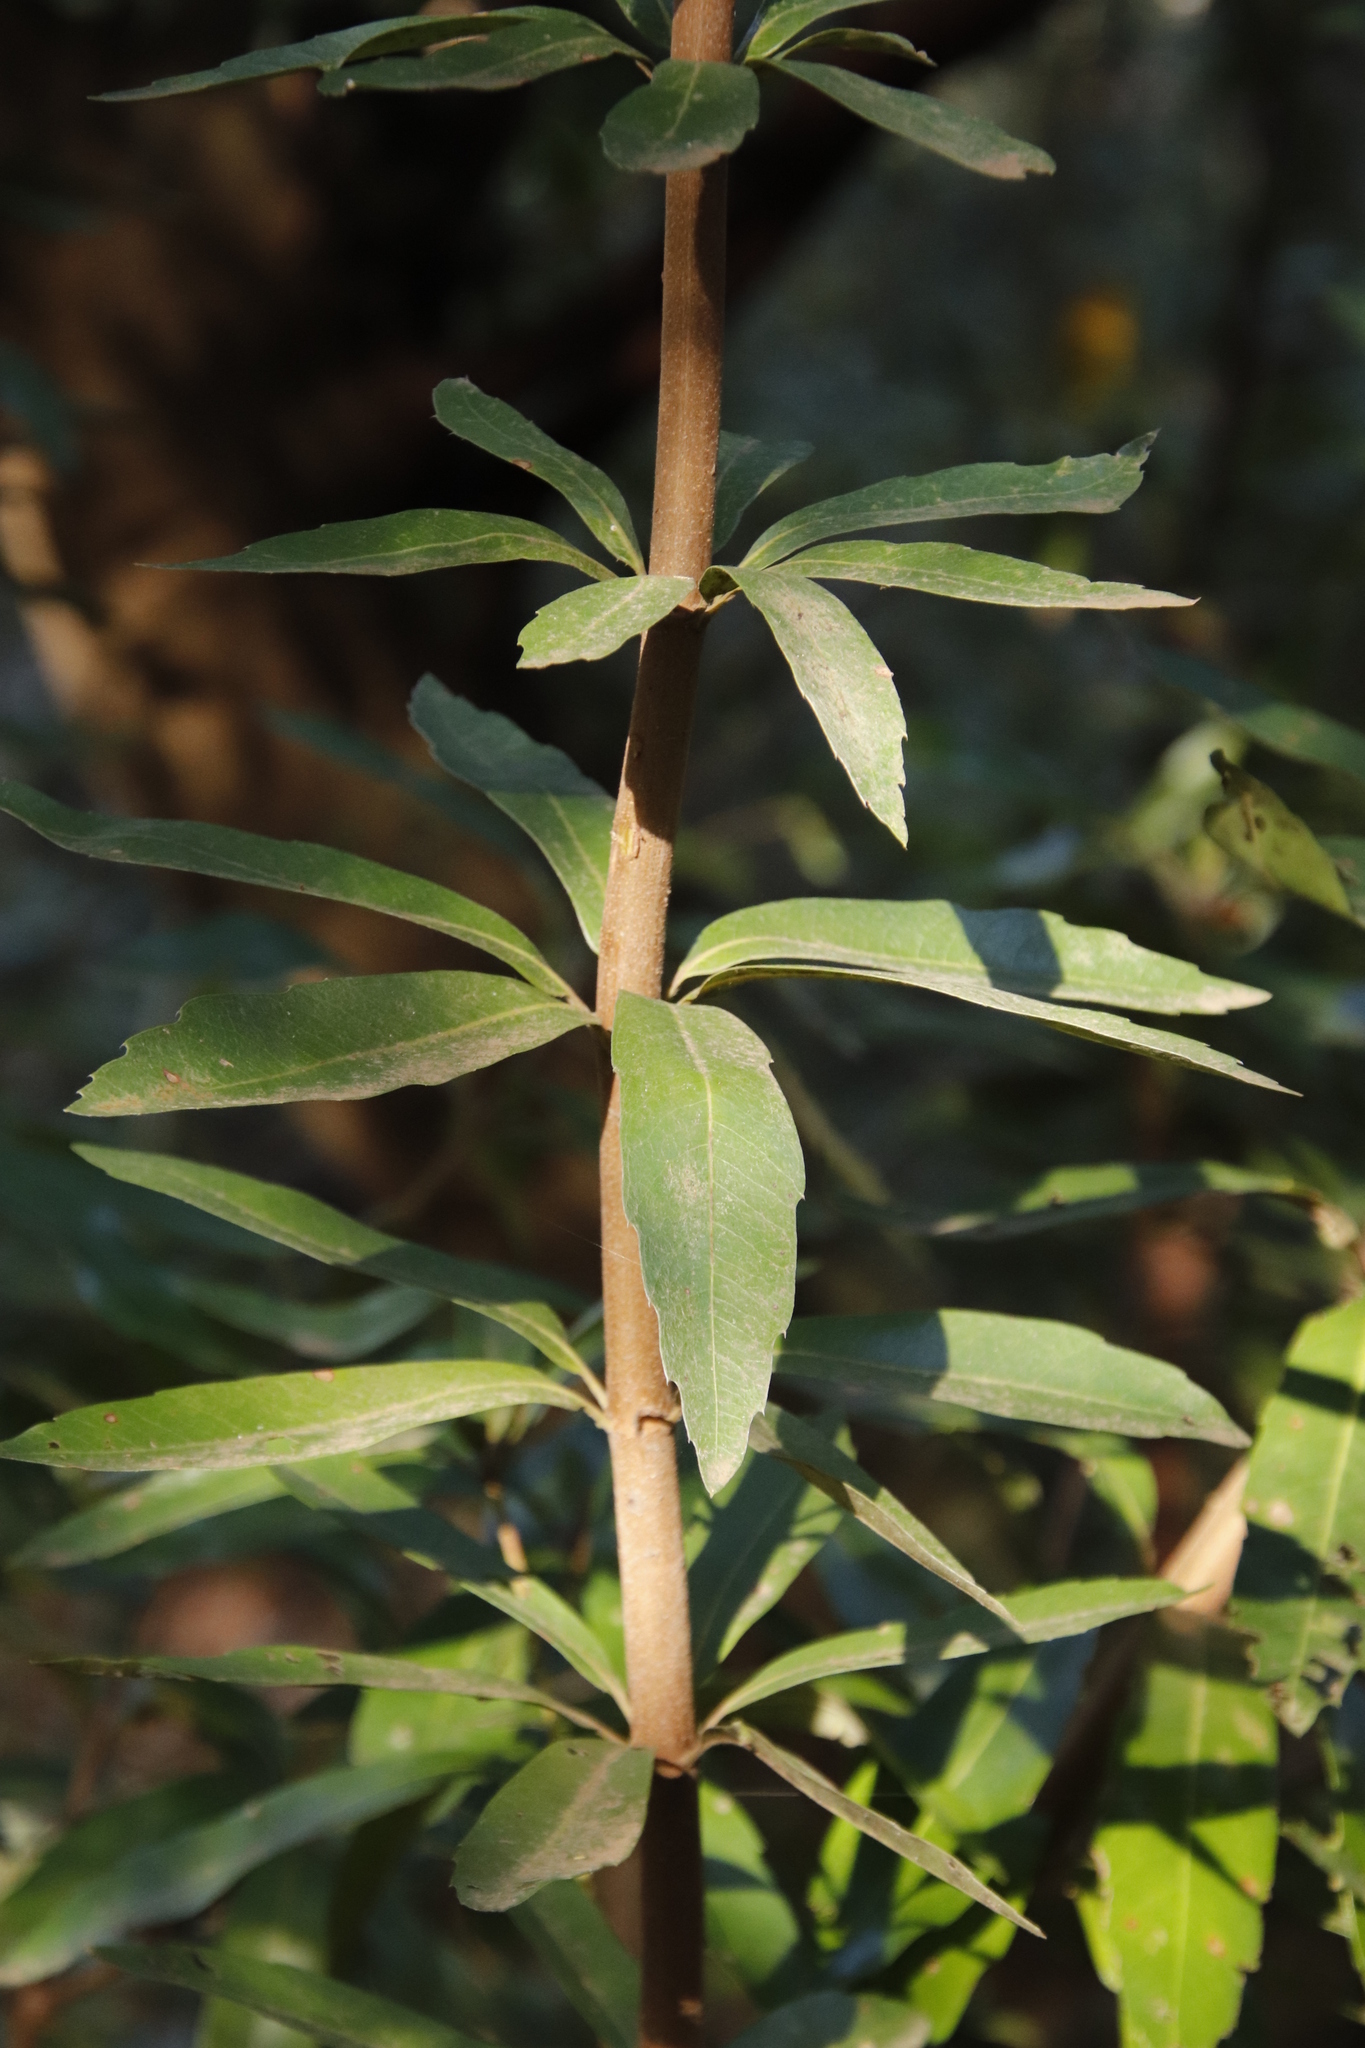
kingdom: Plantae
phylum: Tracheophyta
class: Magnoliopsida
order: Proteales
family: Proteaceae
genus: Brabejum
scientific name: Brabejum stellatifolium
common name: Wild almond
